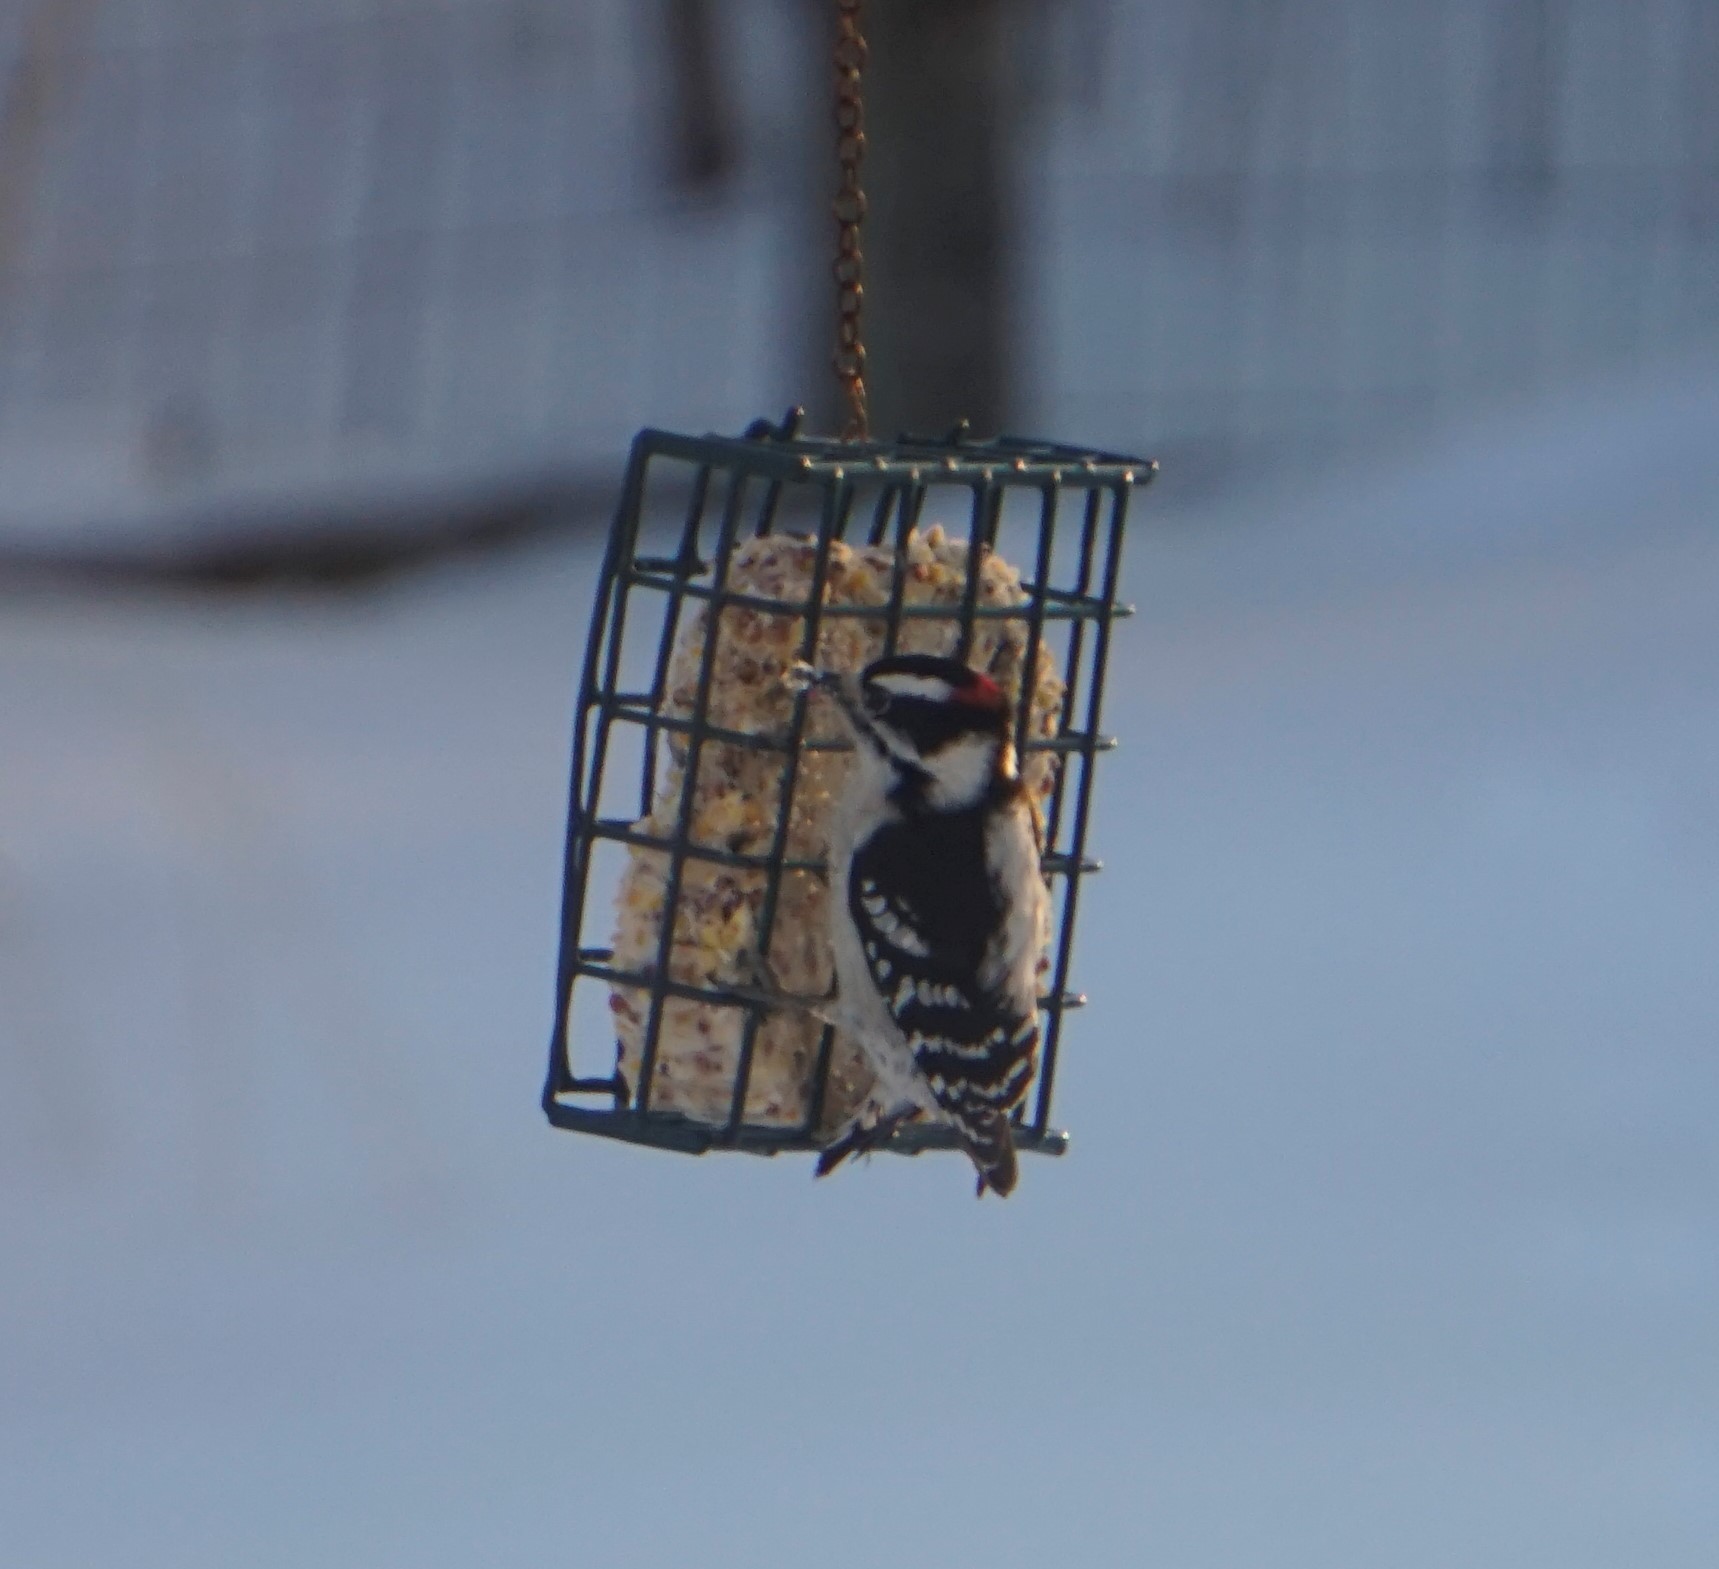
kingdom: Animalia
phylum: Chordata
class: Aves
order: Piciformes
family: Picidae
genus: Dryobates
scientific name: Dryobates pubescens
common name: Downy woodpecker
